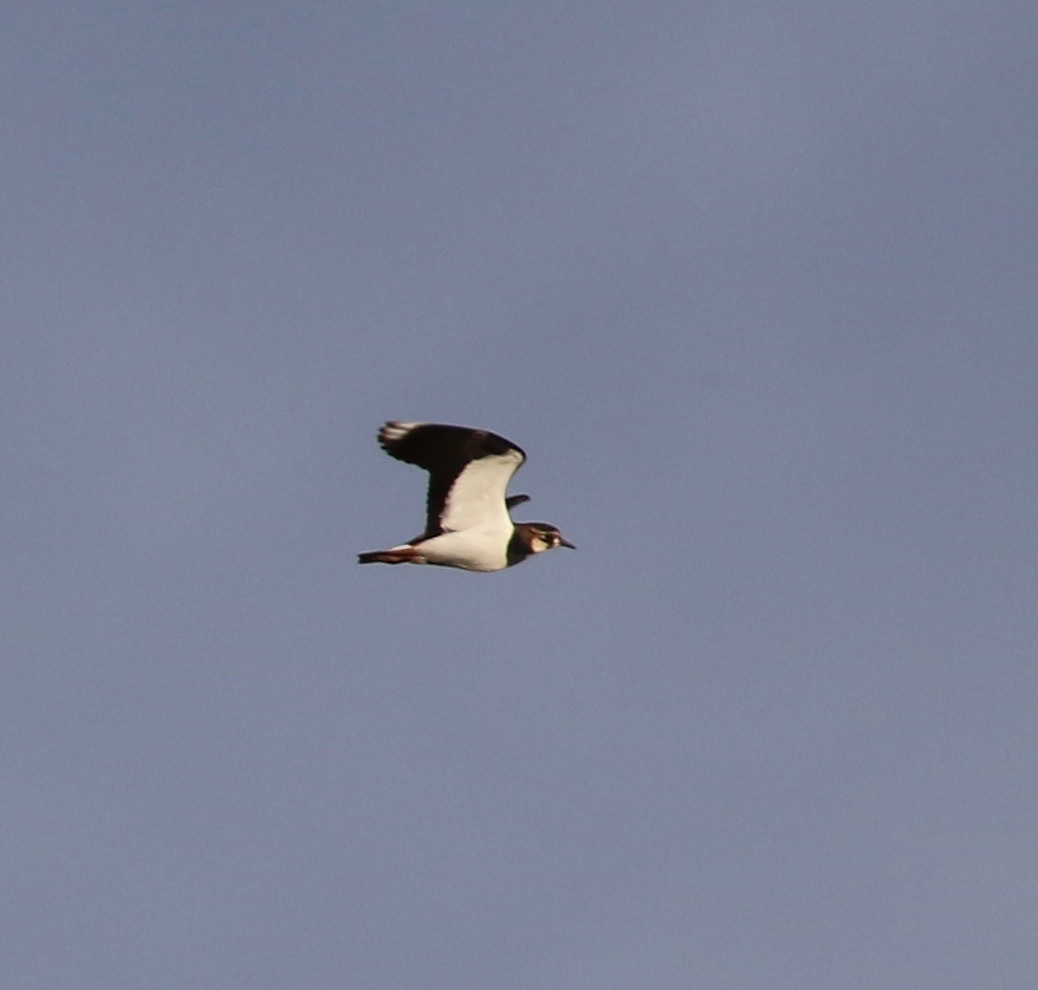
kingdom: Animalia
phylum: Chordata
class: Aves
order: Charadriiformes
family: Charadriidae
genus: Vanellus
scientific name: Vanellus vanellus
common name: Northern lapwing
